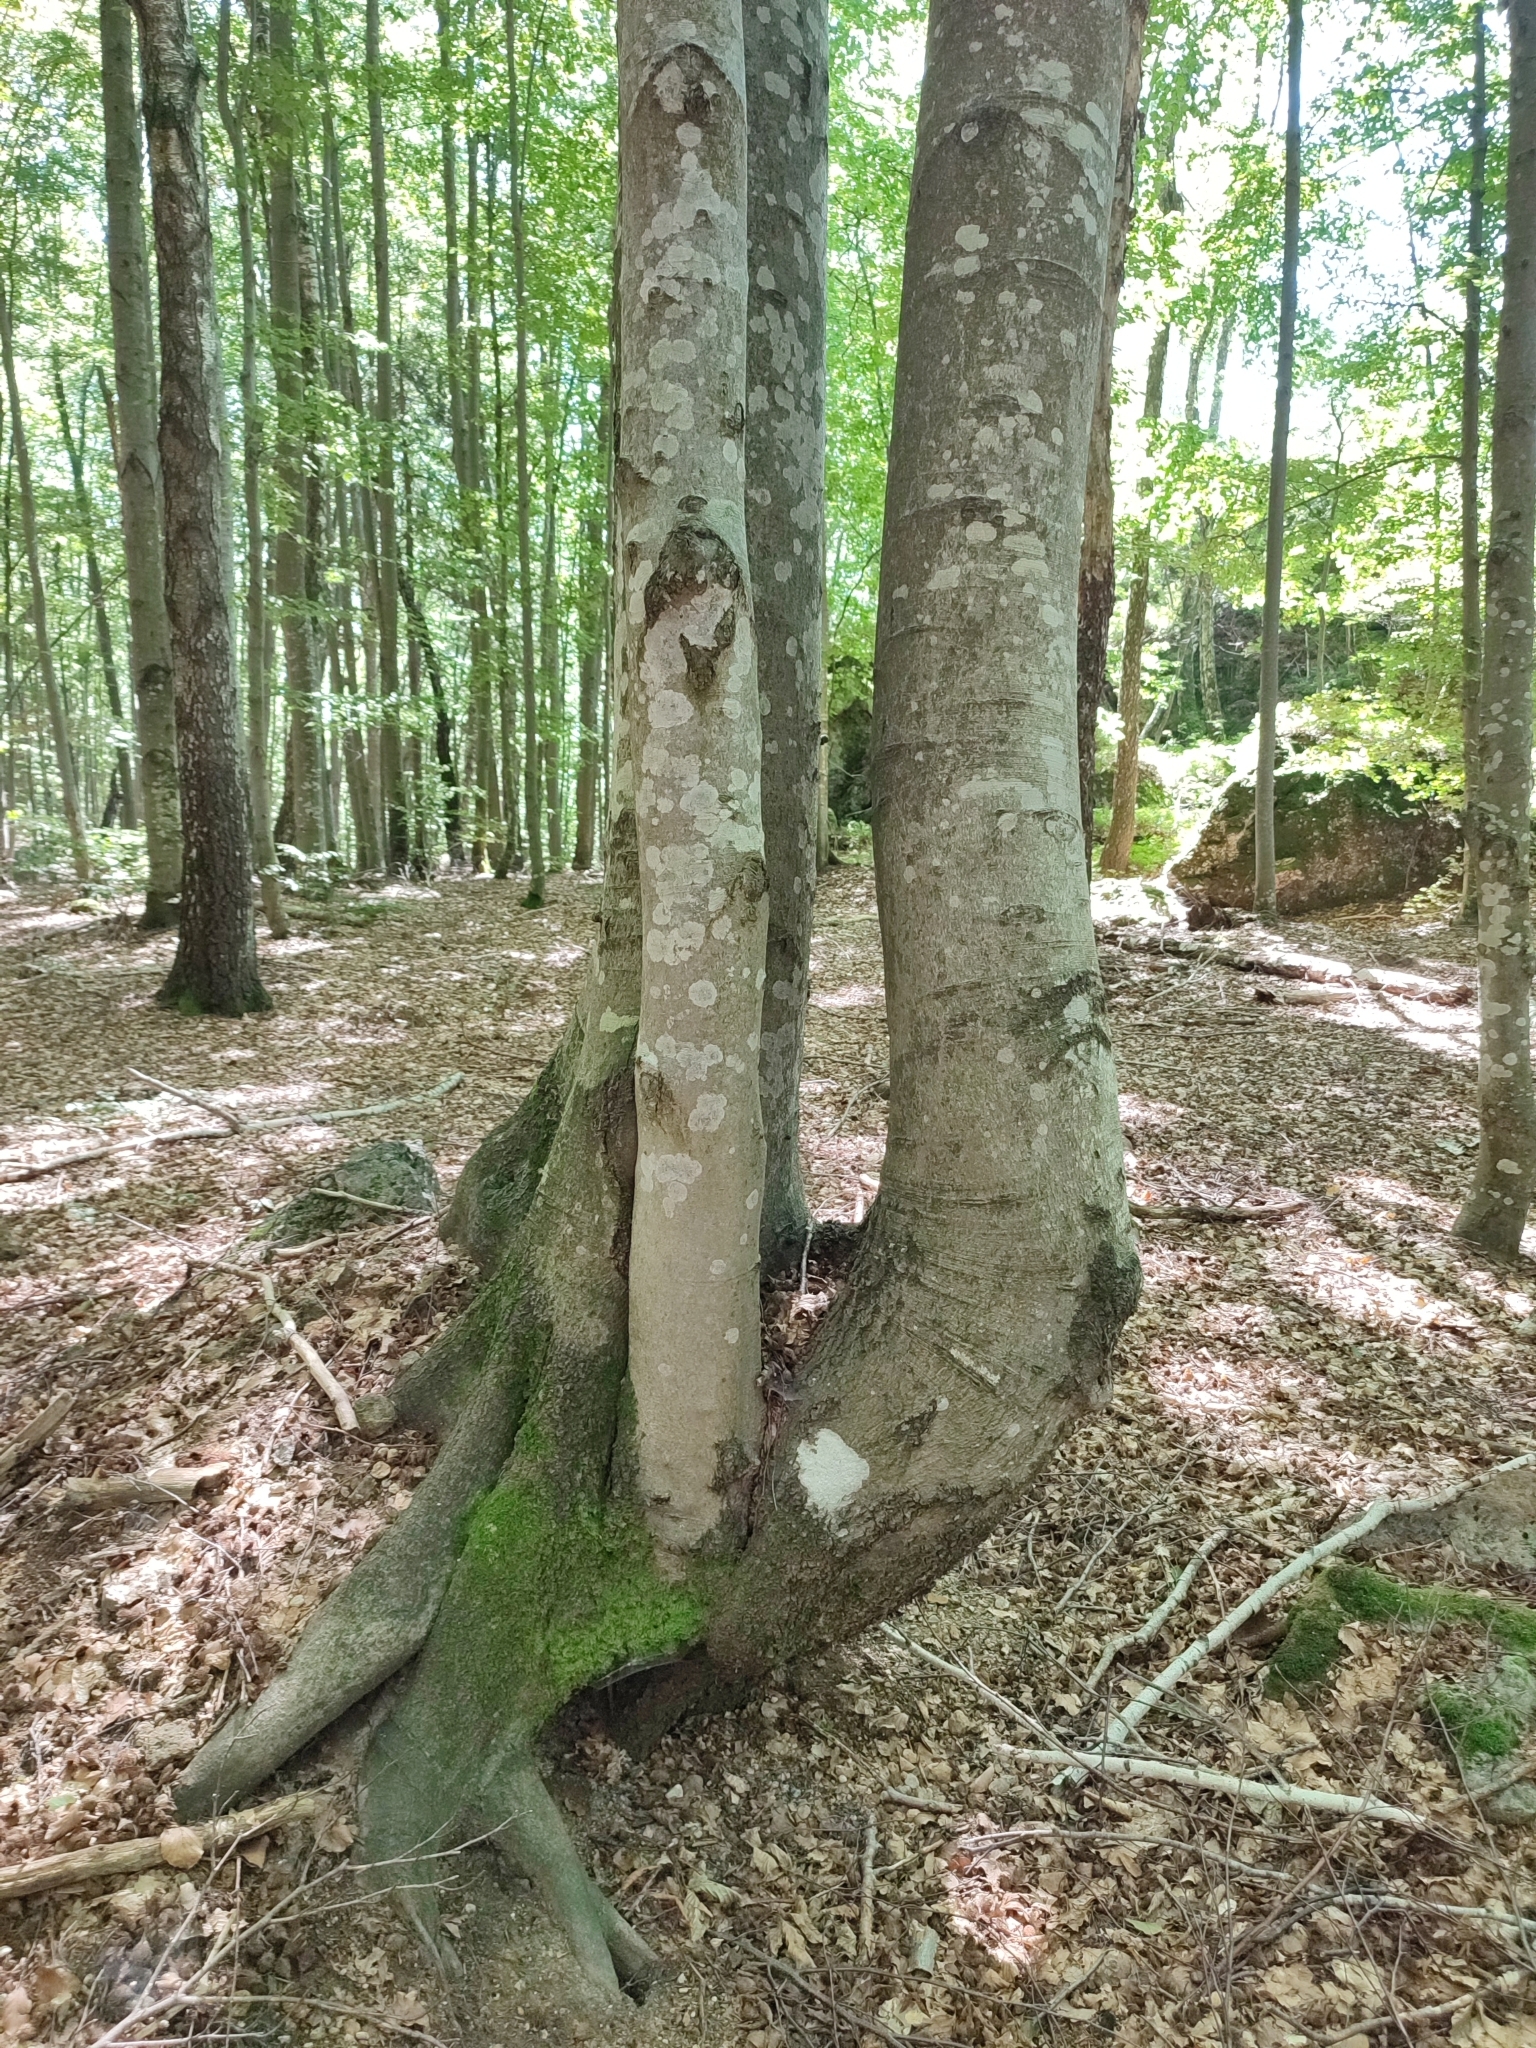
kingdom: Plantae
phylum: Tracheophyta
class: Magnoliopsida
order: Fagales
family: Fagaceae
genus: Fagus
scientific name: Fagus sylvatica
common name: Beech
